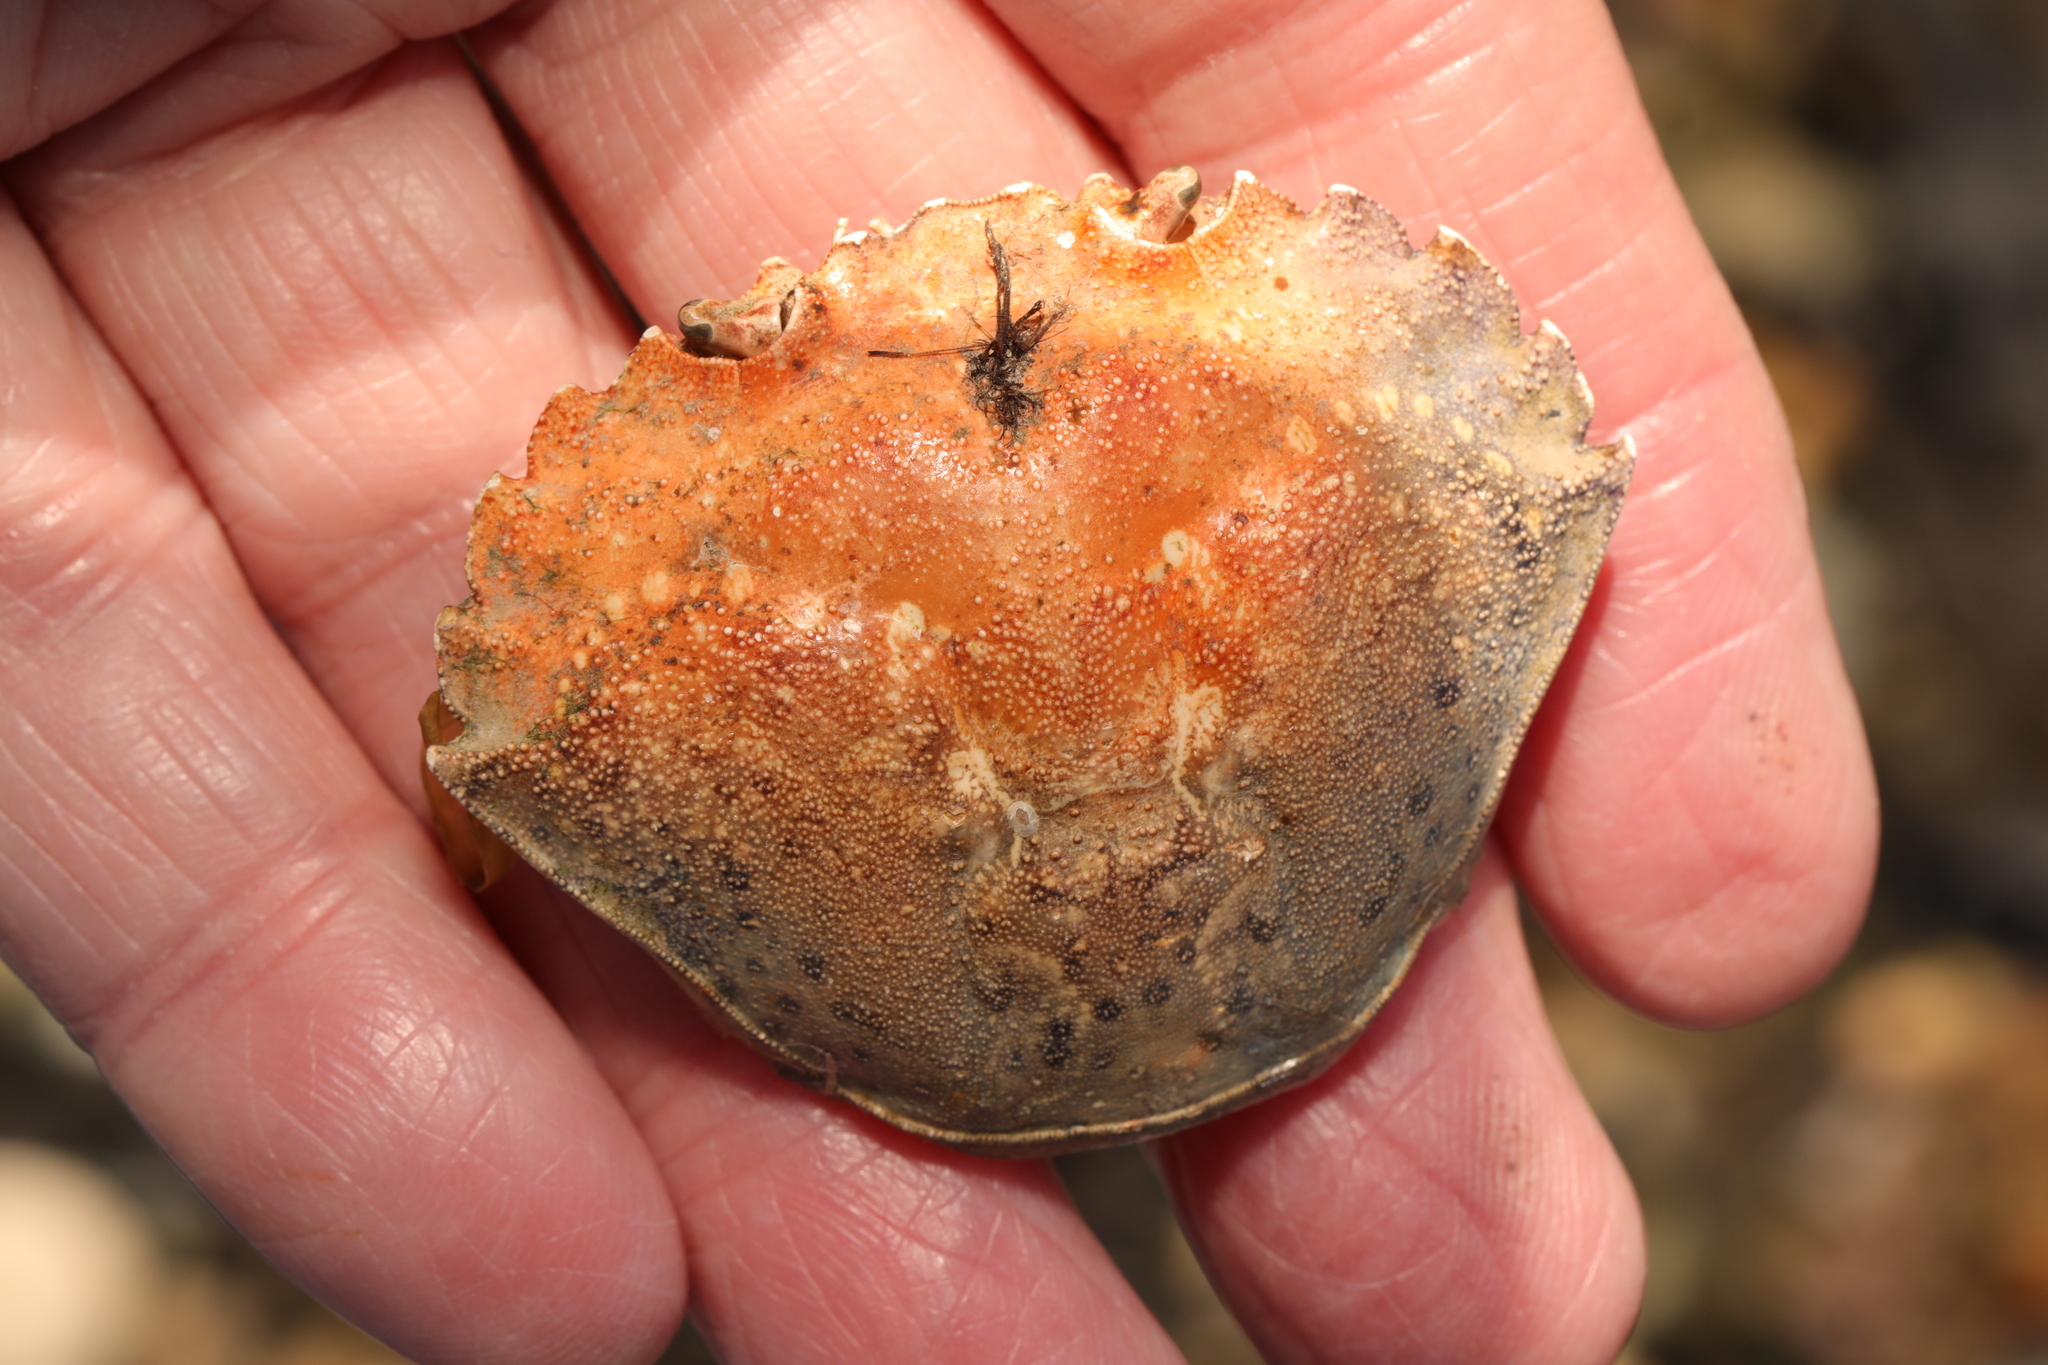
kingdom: Animalia
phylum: Arthropoda
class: Malacostraca
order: Decapoda
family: Carcinidae
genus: Carcinus
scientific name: Carcinus maenas
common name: European green crab
